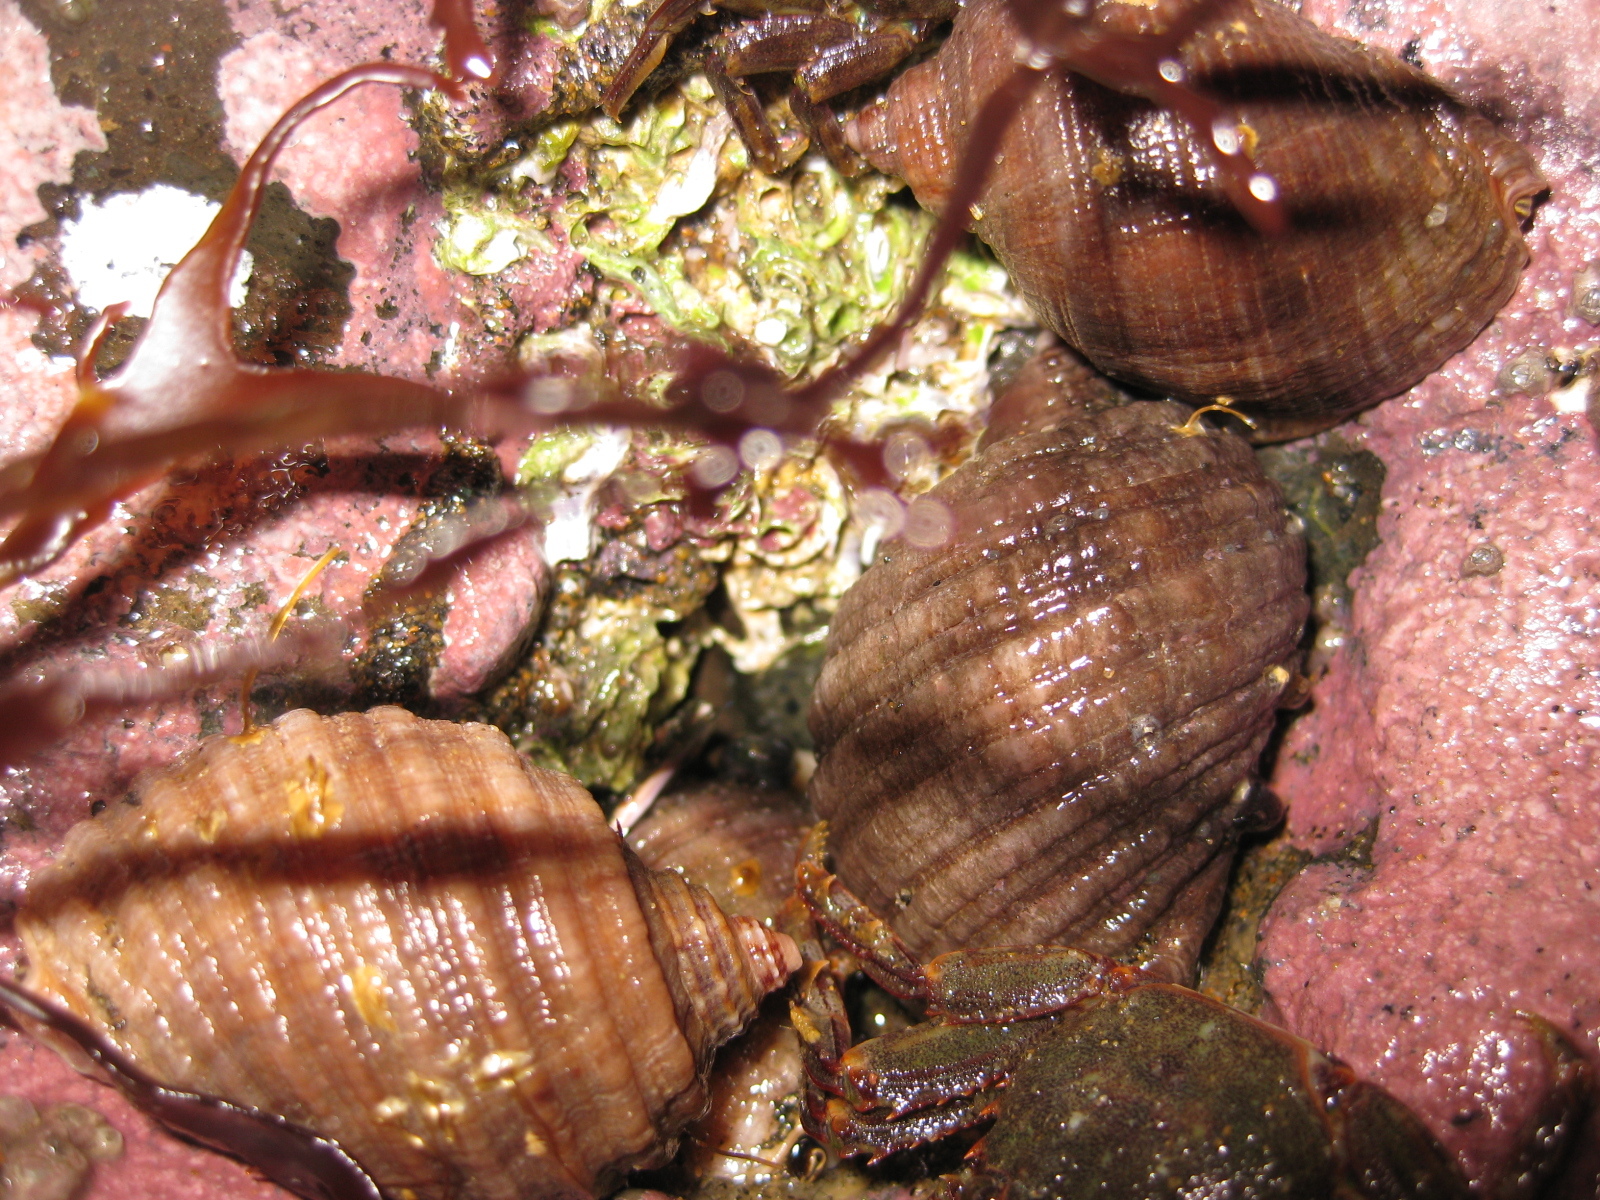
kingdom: Animalia
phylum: Mollusca
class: Gastropoda
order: Neogastropoda
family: Muricidae
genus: Dicathais
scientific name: Dicathais orbita
